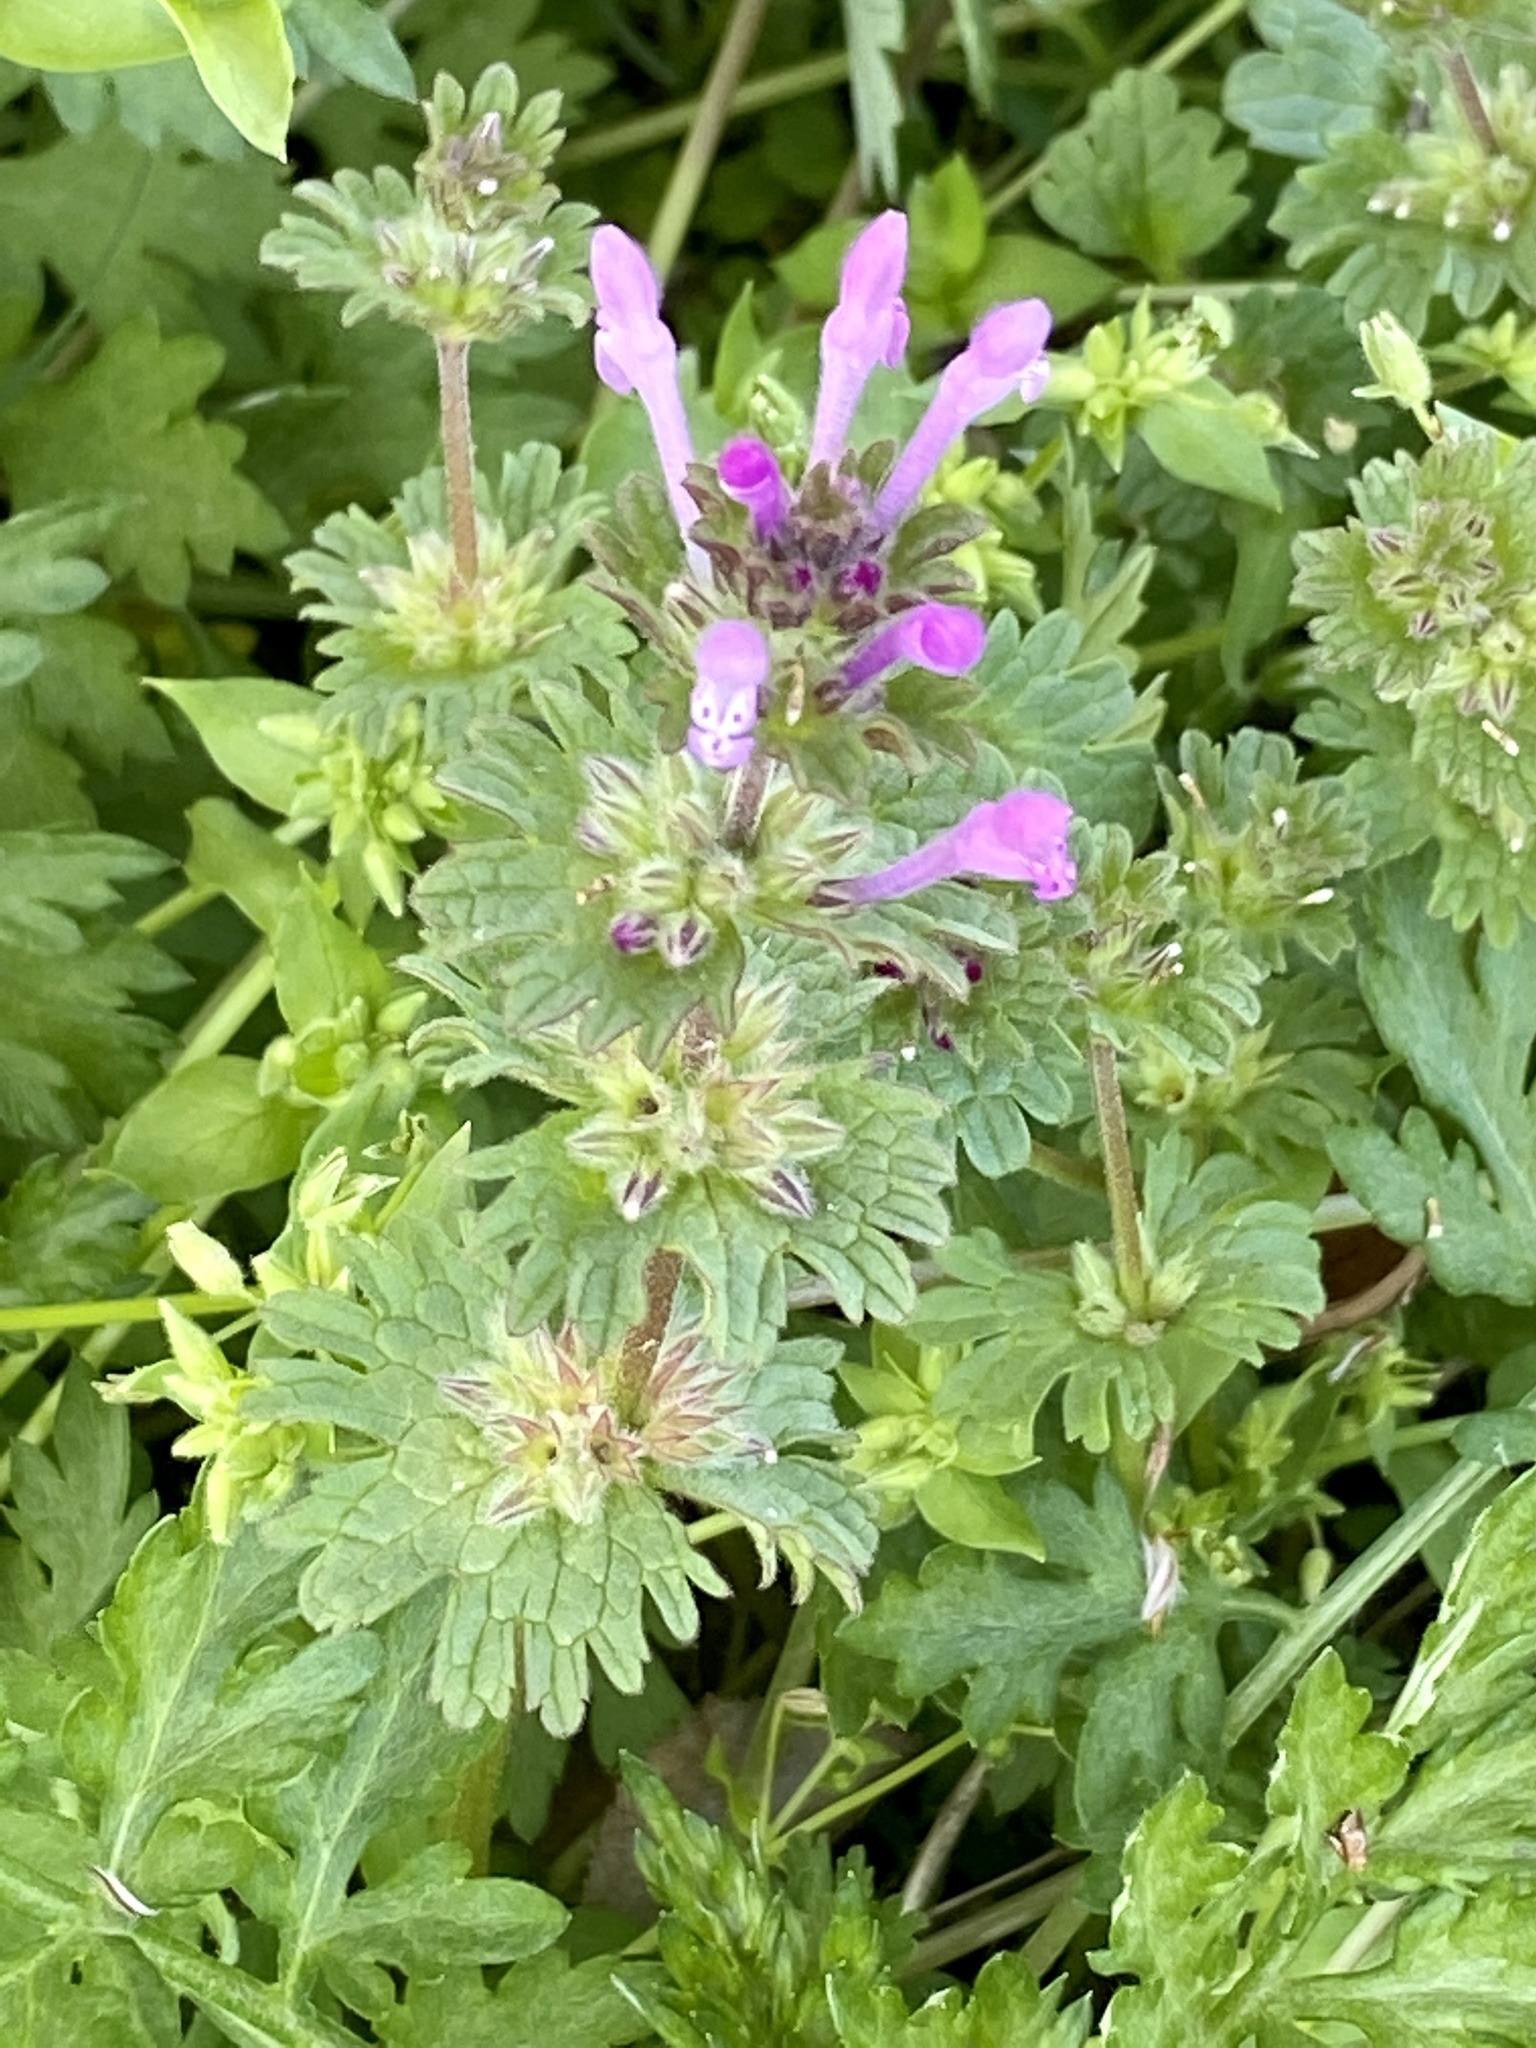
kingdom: Plantae
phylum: Tracheophyta
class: Magnoliopsida
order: Lamiales
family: Lamiaceae
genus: Lamium
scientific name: Lamium amplexicaule
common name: Henbit dead-nettle
